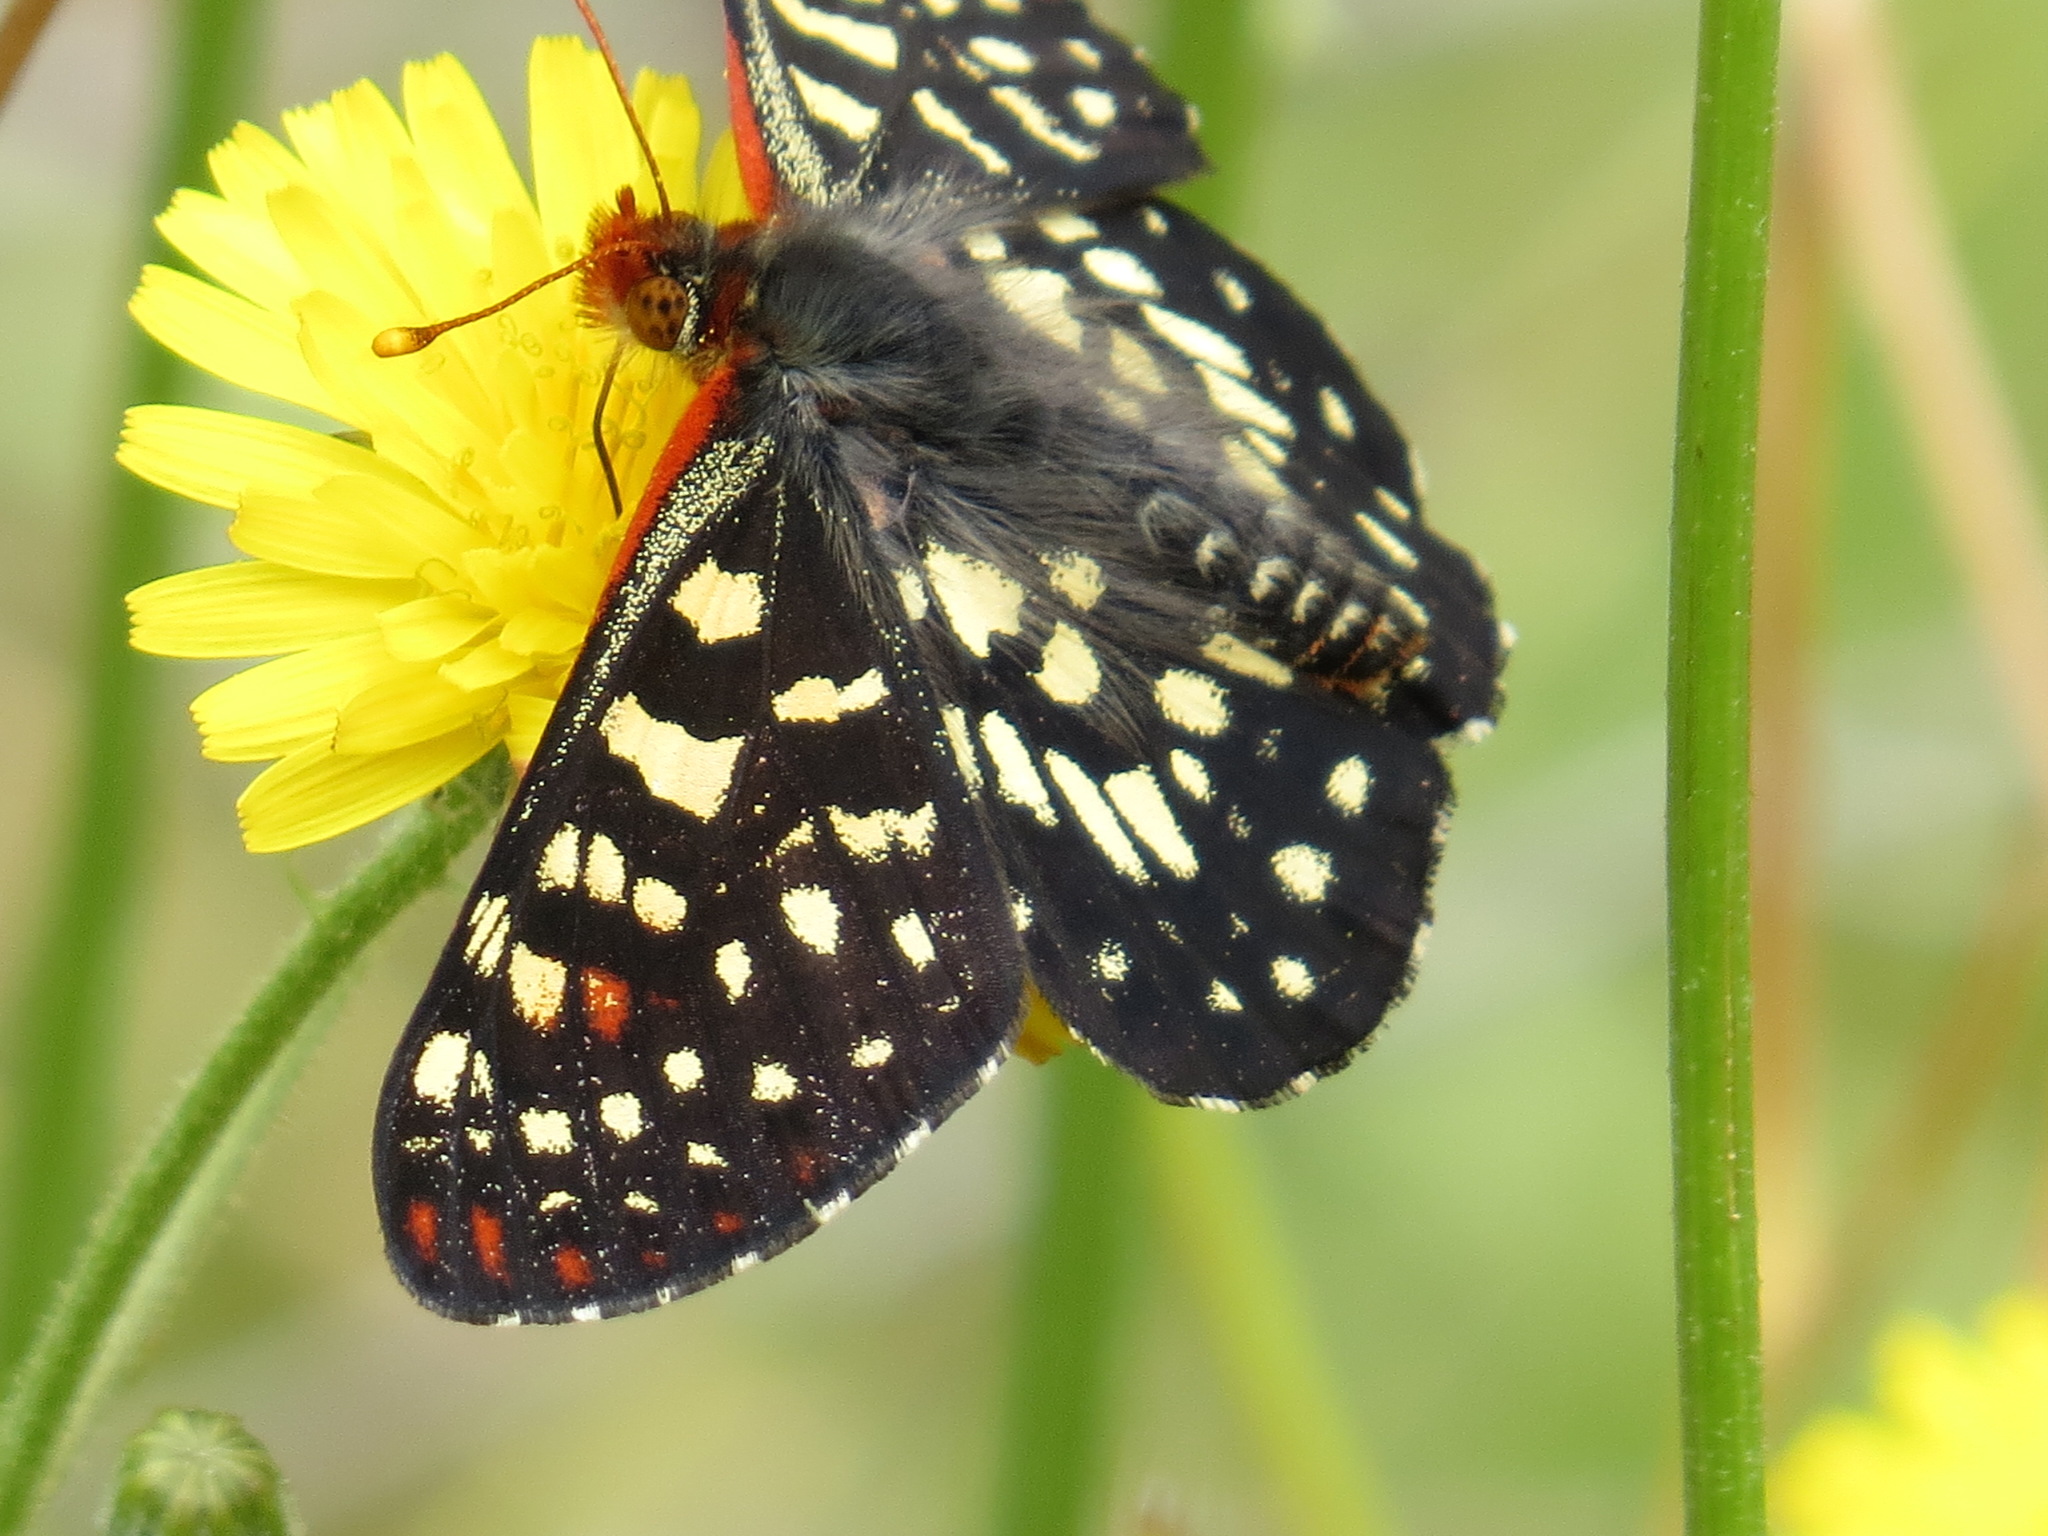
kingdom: Animalia
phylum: Arthropoda
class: Insecta
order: Lepidoptera
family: Nymphalidae
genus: Occidryas
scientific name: Occidryas chalcedona
